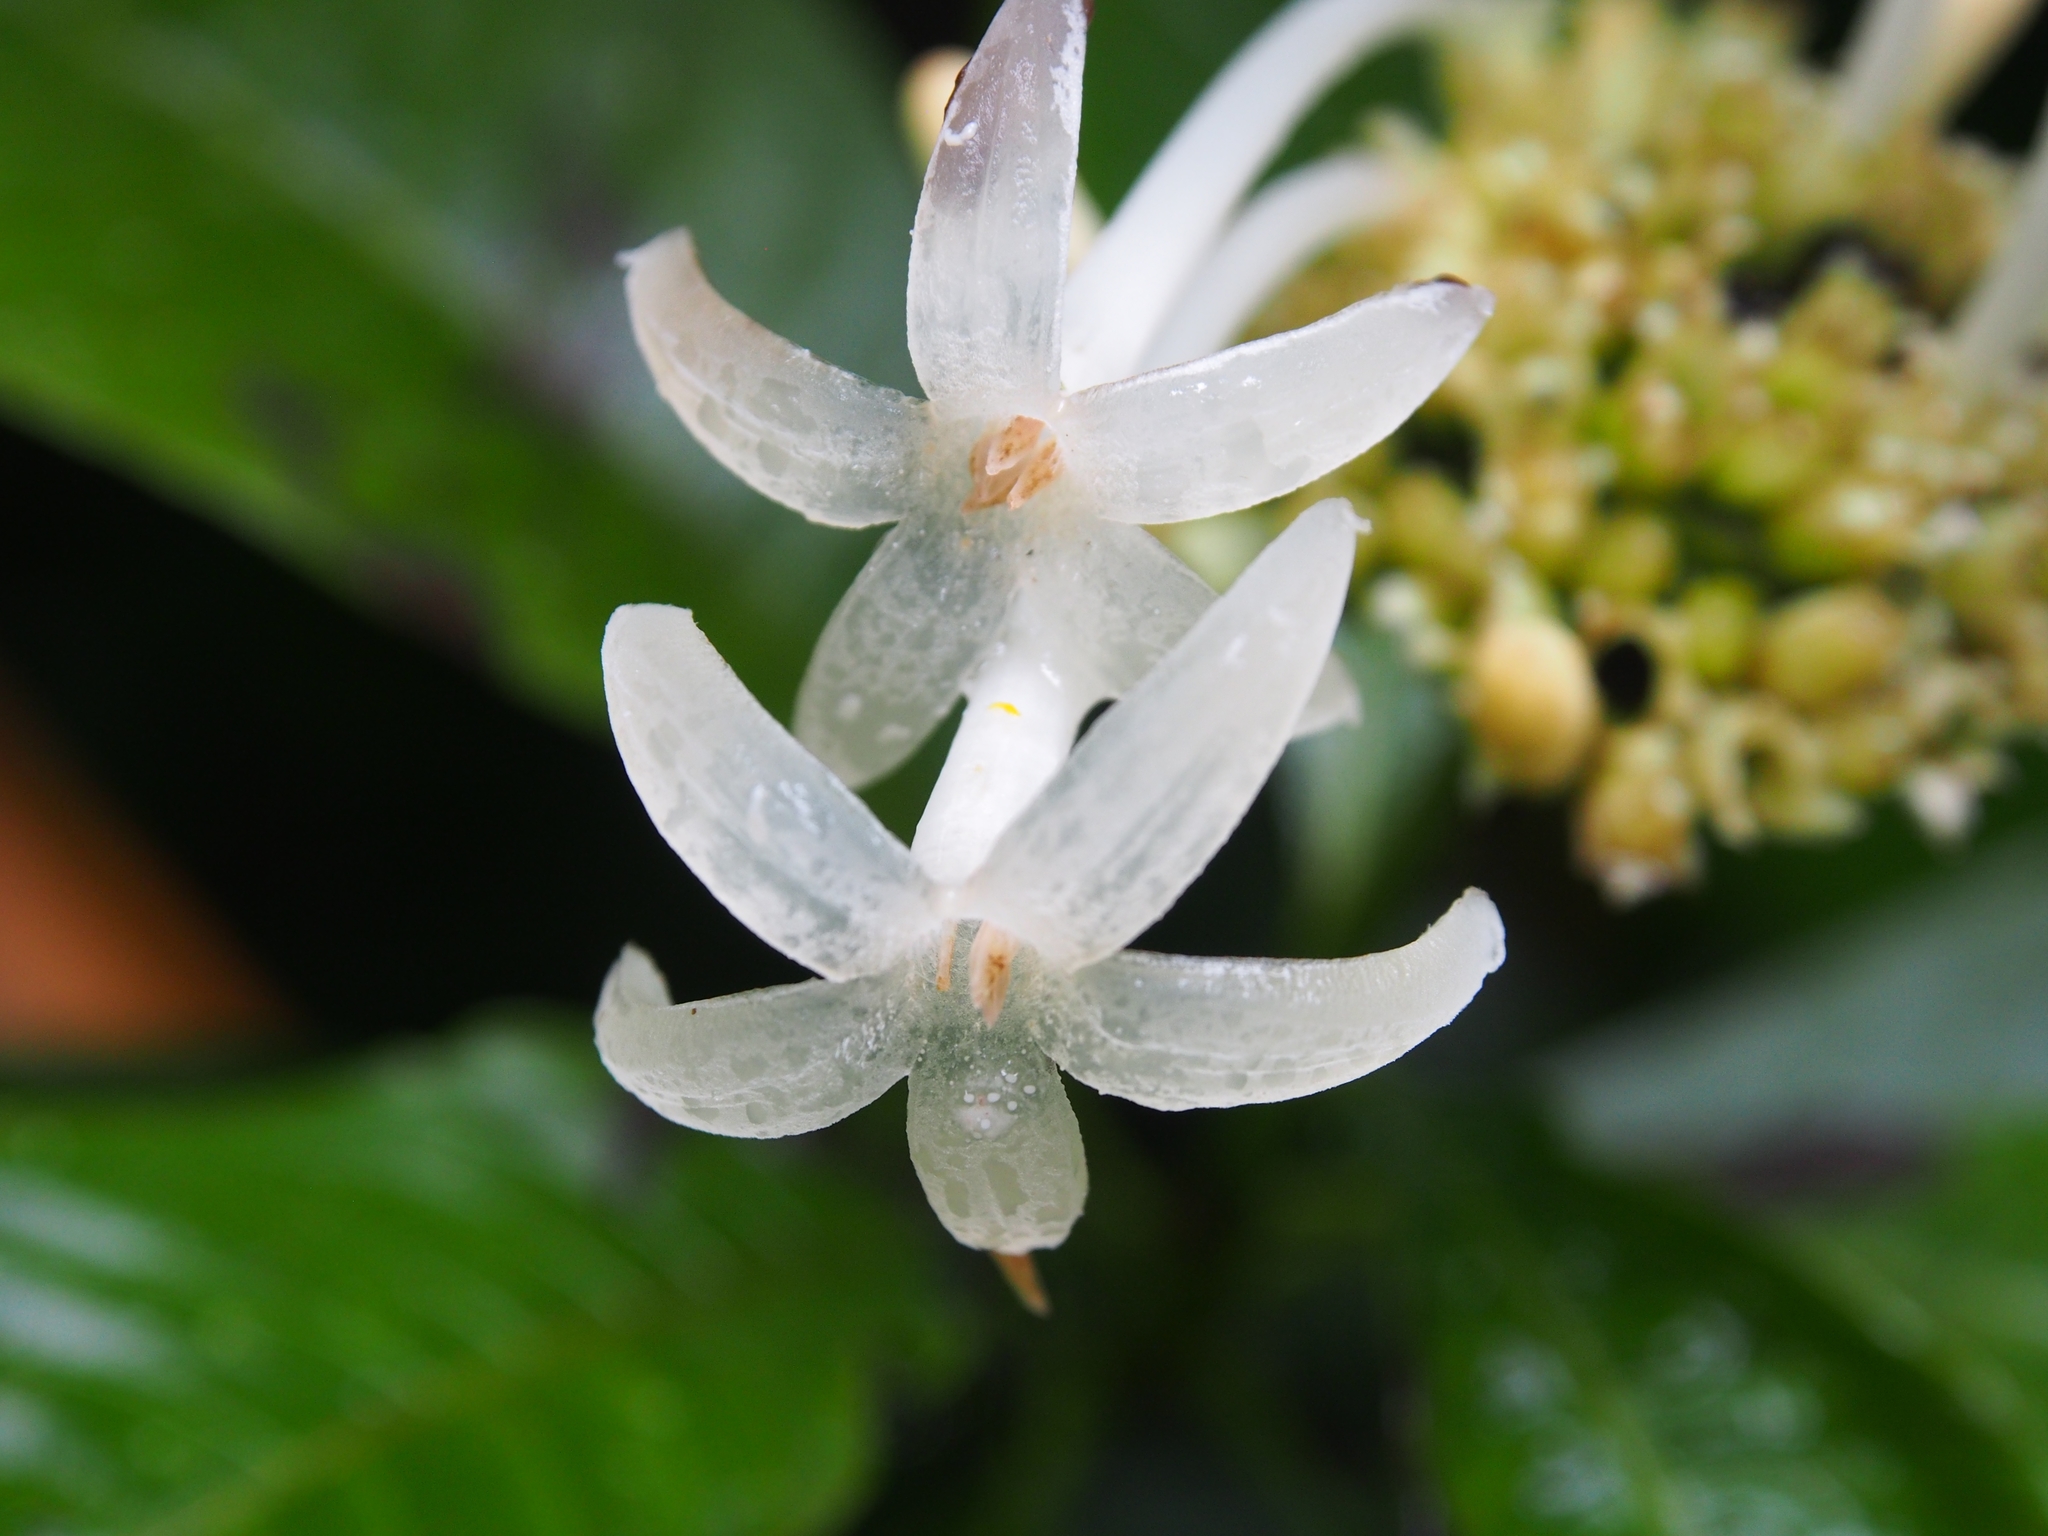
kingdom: Plantae
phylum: Tracheophyta
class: Magnoliopsida
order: Gentianales
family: Rubiaceae
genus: Palicourea
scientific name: Palicourea tetragona
